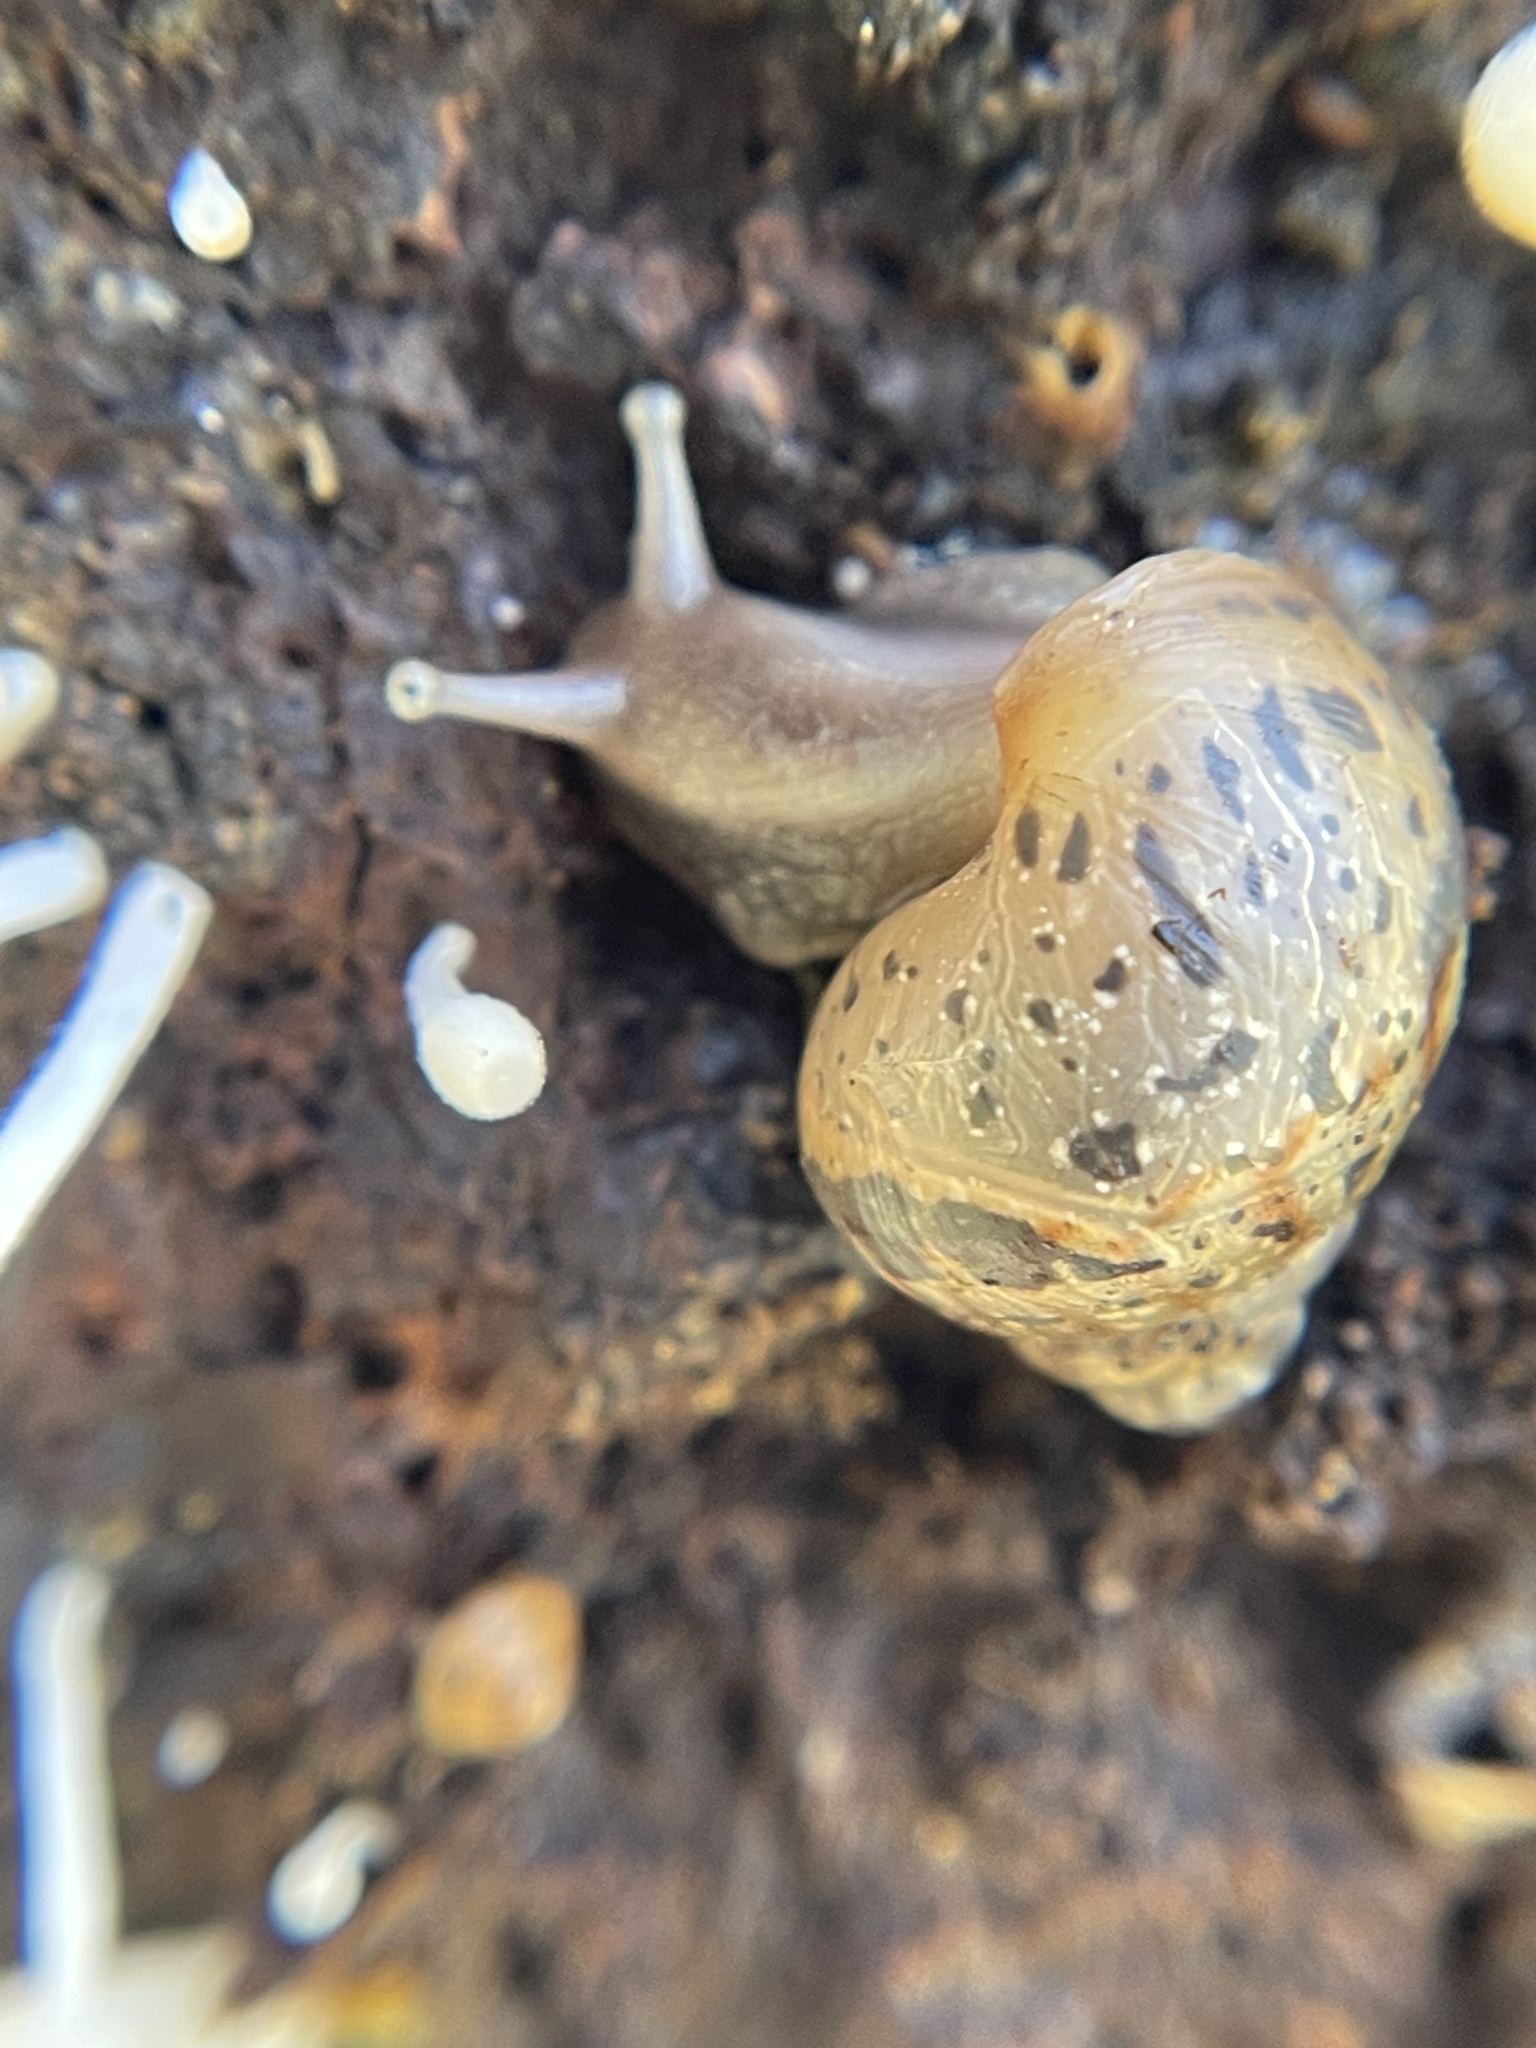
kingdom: Animalia
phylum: Mollusca
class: Gastropoda
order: Stylommatophora
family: Achatinidae
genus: Lissachatina
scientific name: Lissachatina fulica
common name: Giant african snail
